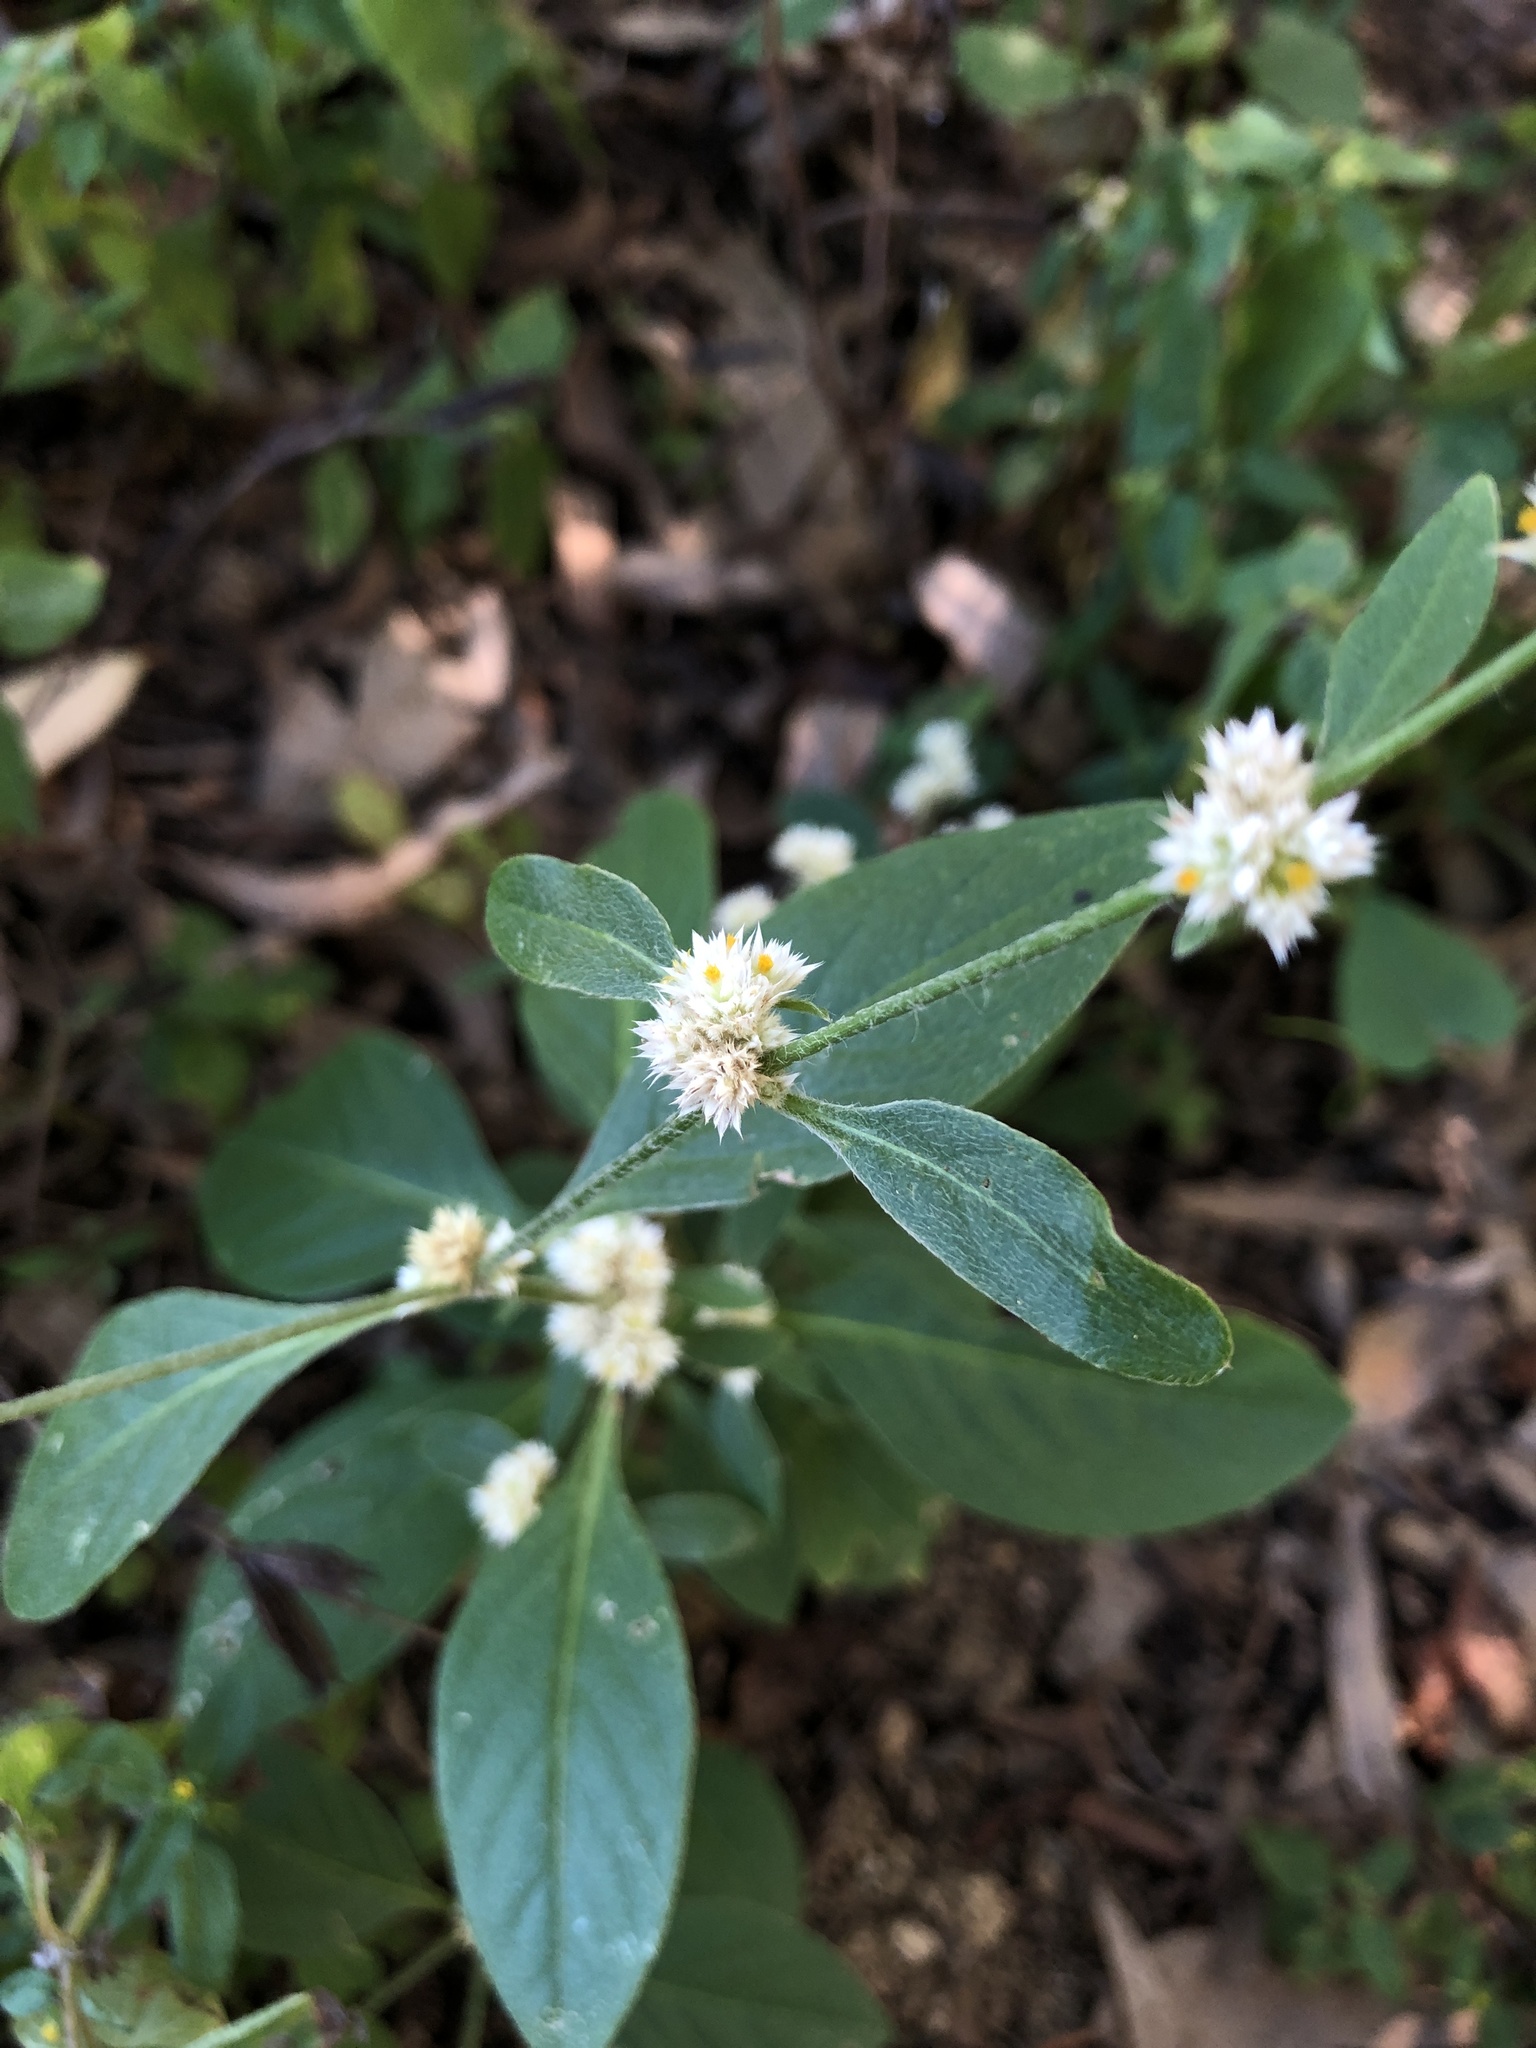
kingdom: Plantae
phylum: Tracheophyta
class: Magnoliopsida
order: Caryophyllales
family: Amaranthaceae
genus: Alternanthera
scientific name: Alternanthera ficoidea
